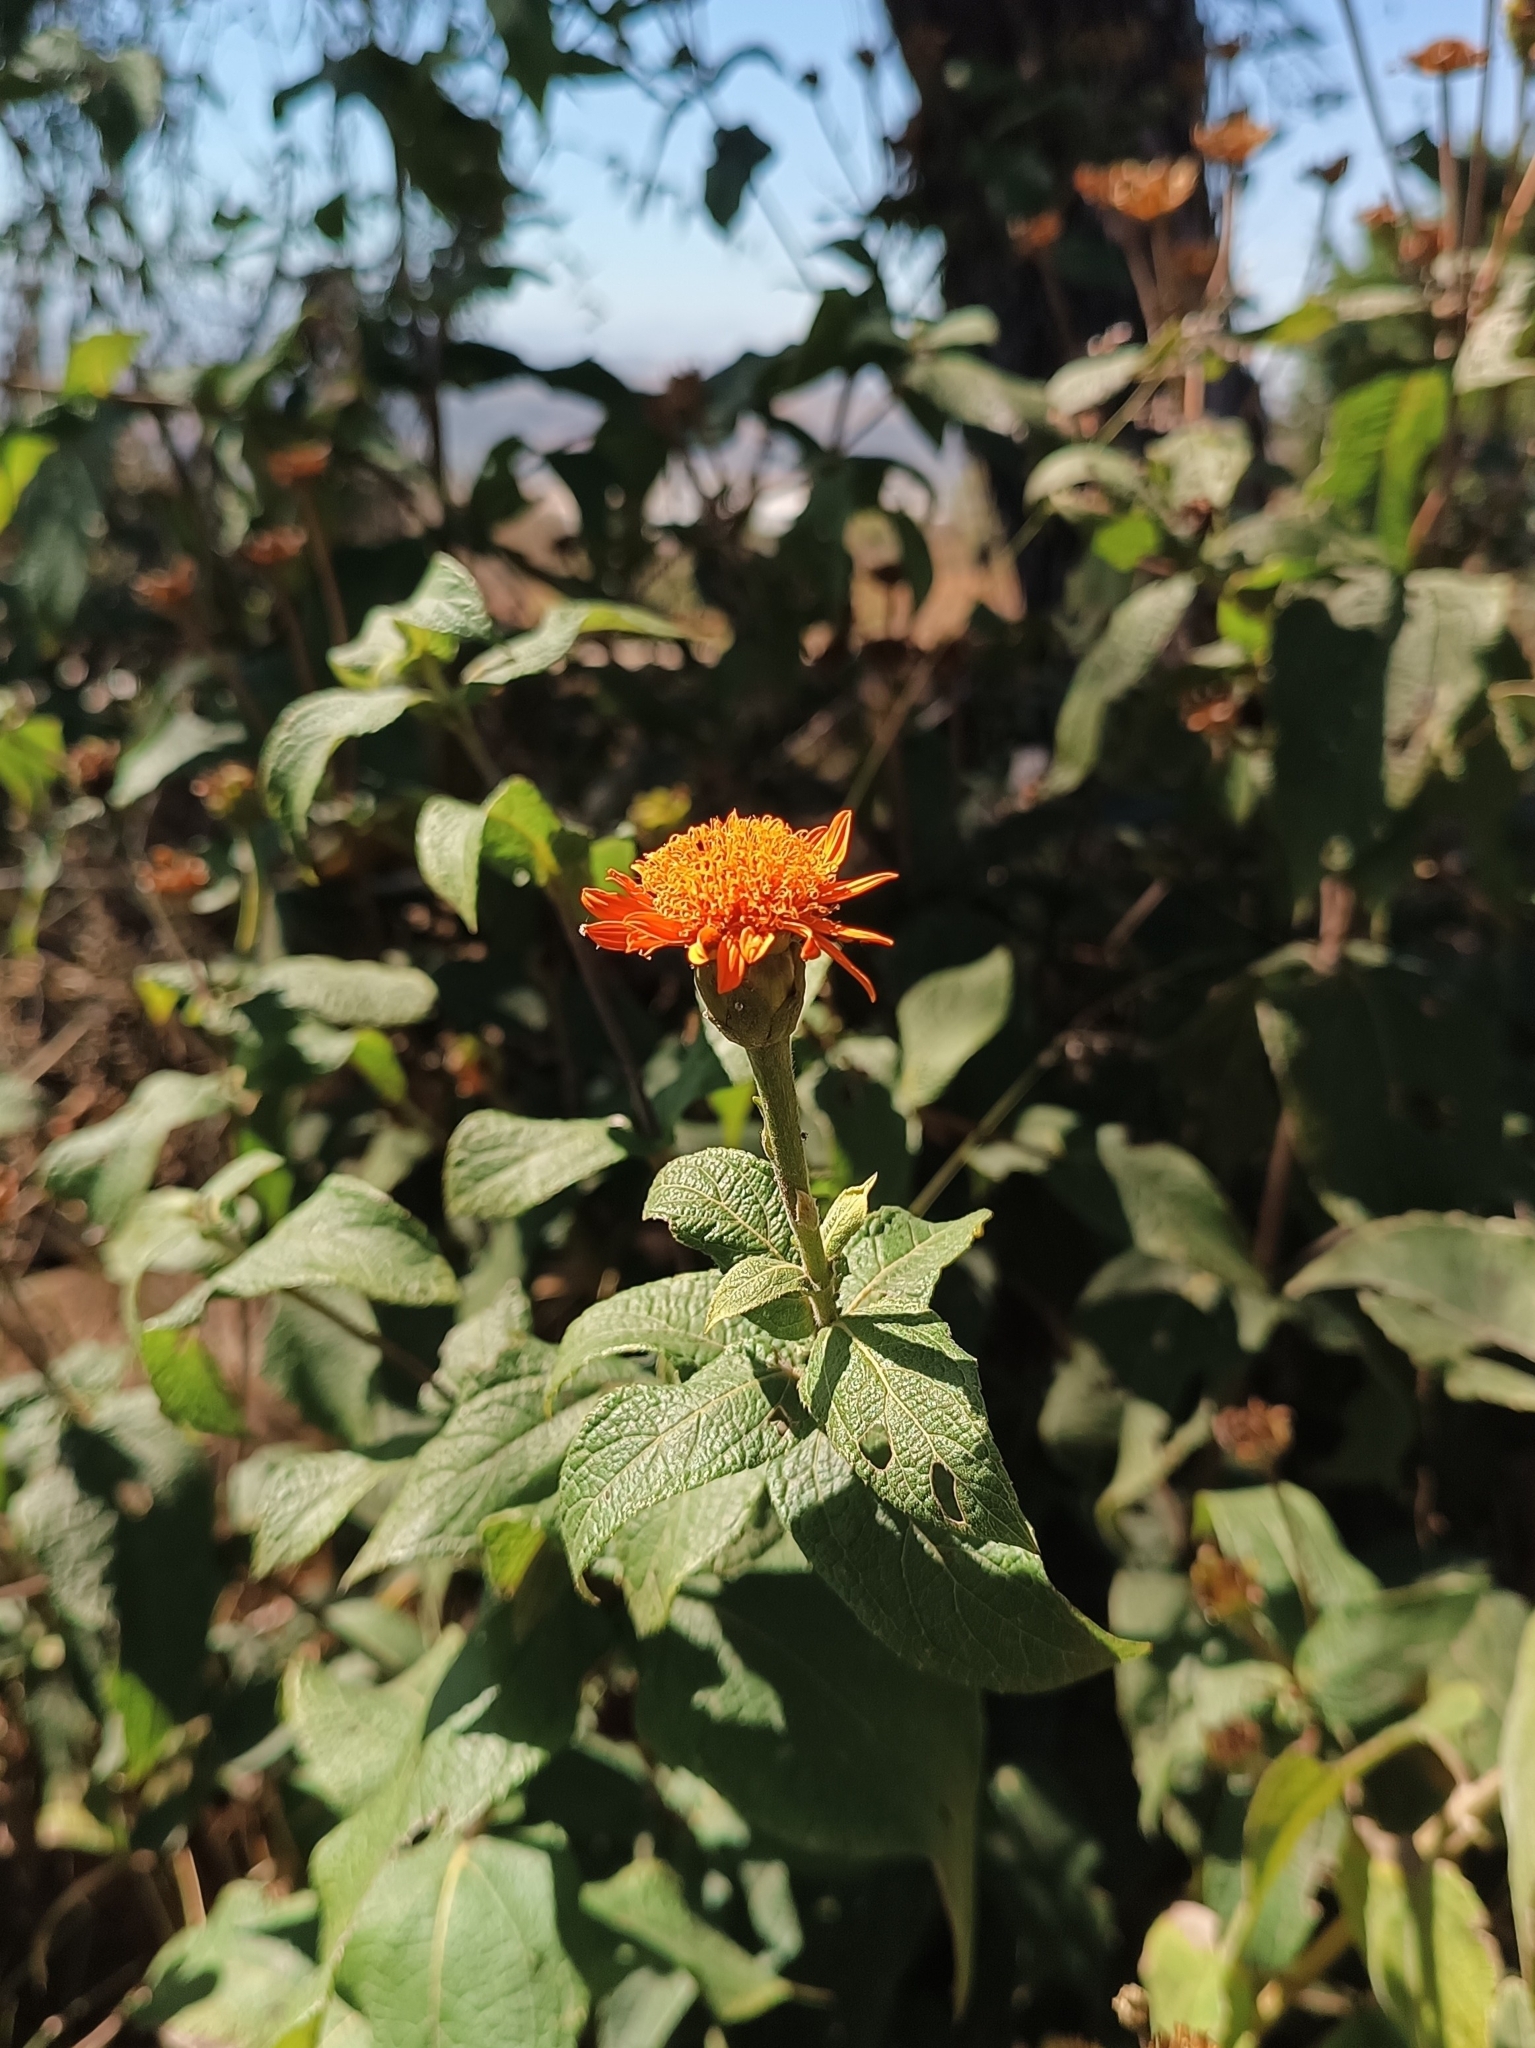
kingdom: Plantae
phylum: Tracheophyta
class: Magnoliopsida
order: Asterales
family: Asteraceae
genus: Lasianthaea
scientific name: Lasianthaea macrocephala
